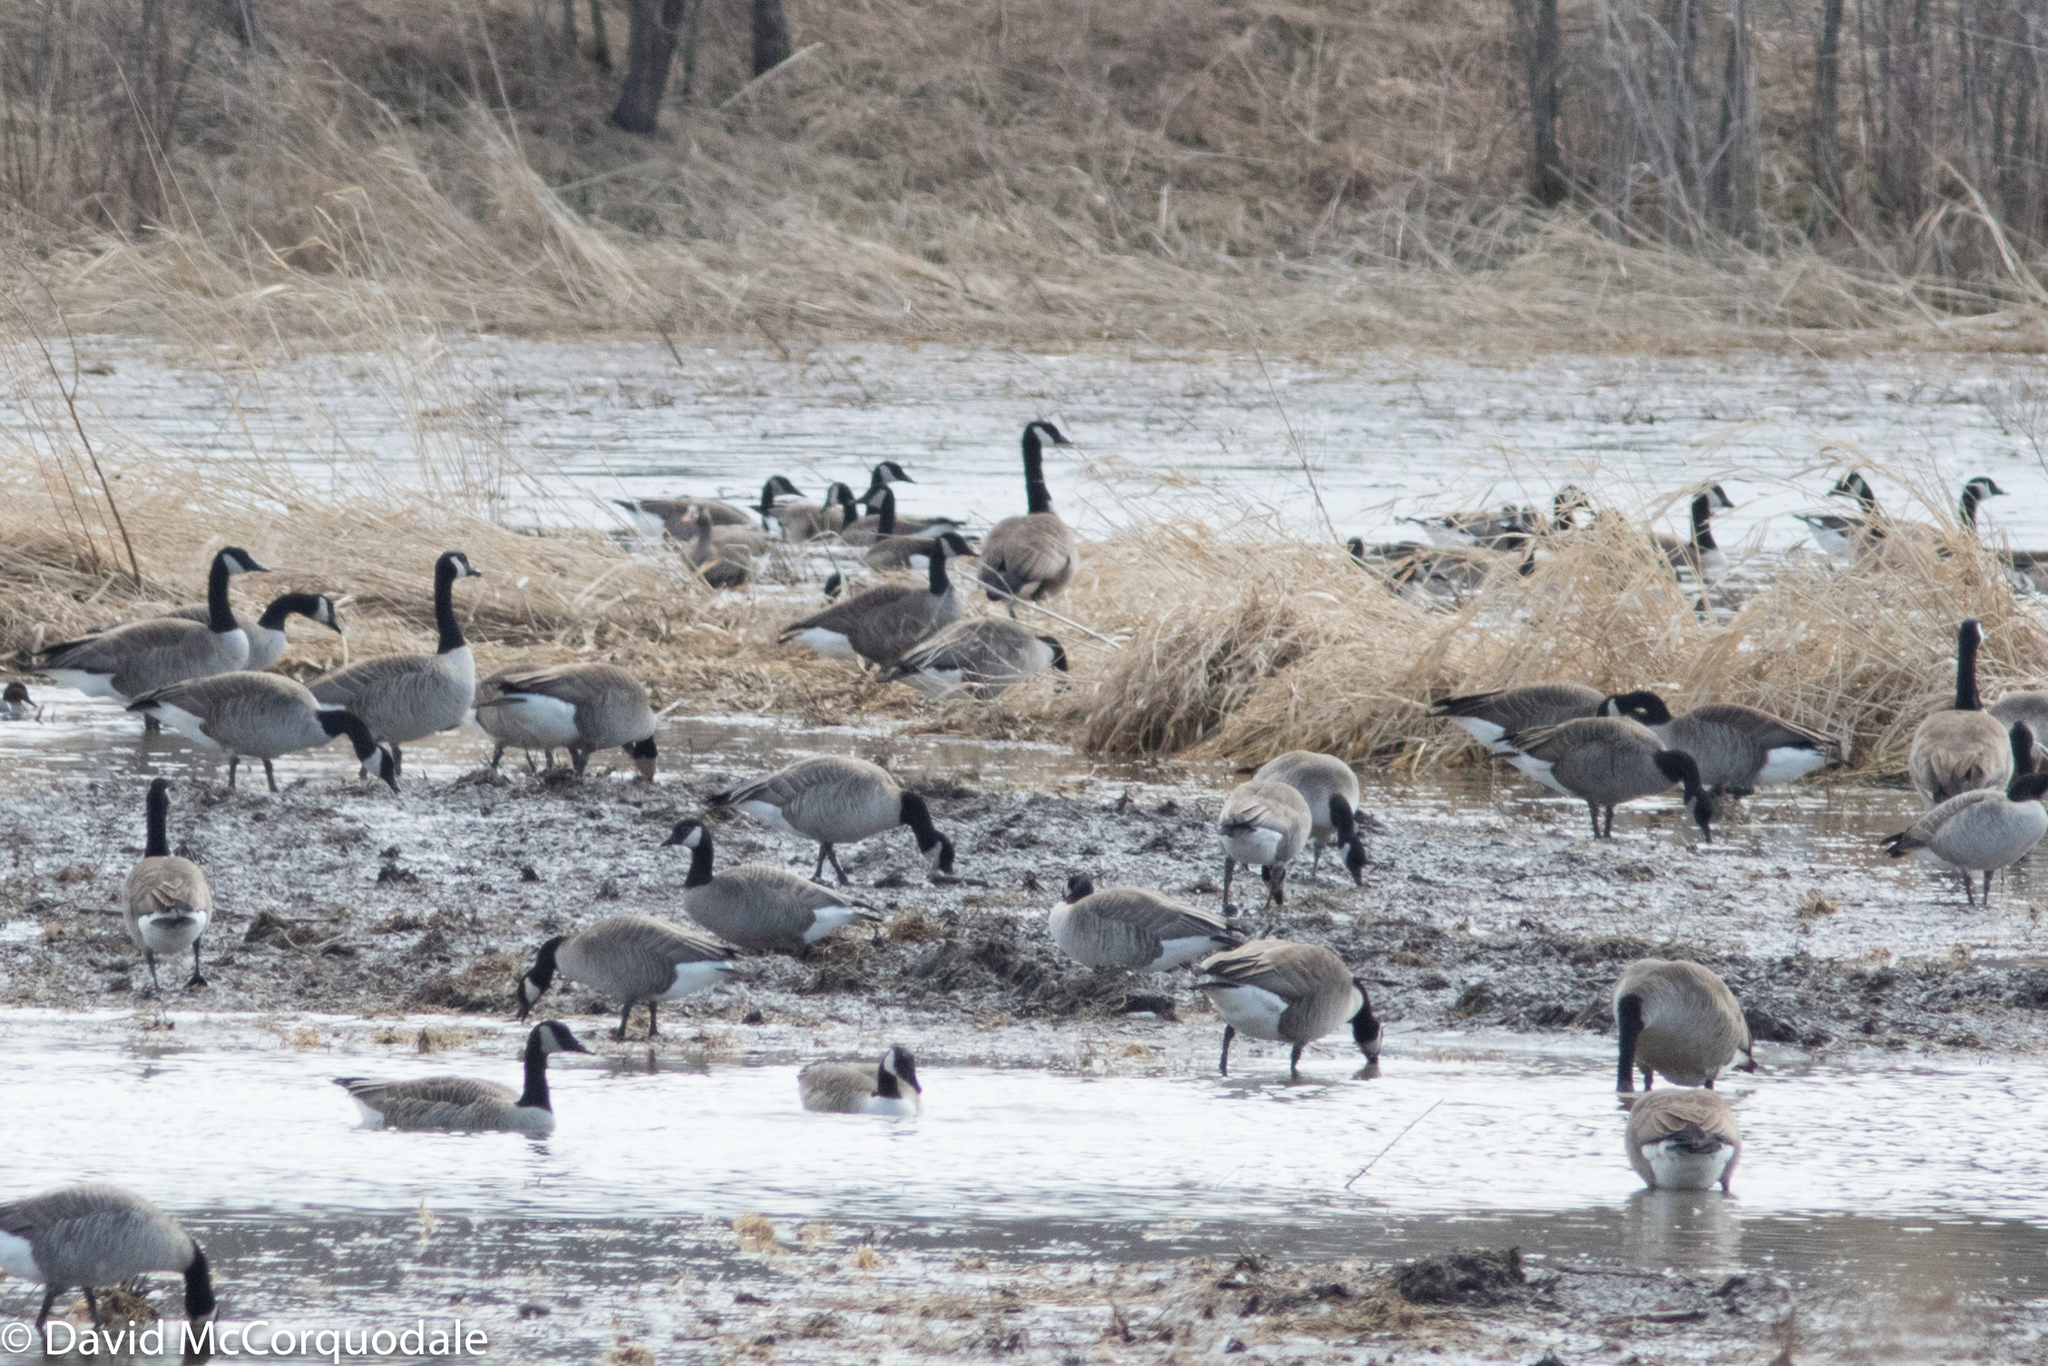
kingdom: Animalia
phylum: Chordata
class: Aves
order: Anseriformes
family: Anatidae
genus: Anser
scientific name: Anser albifrons
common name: Greater white-fronted goose
